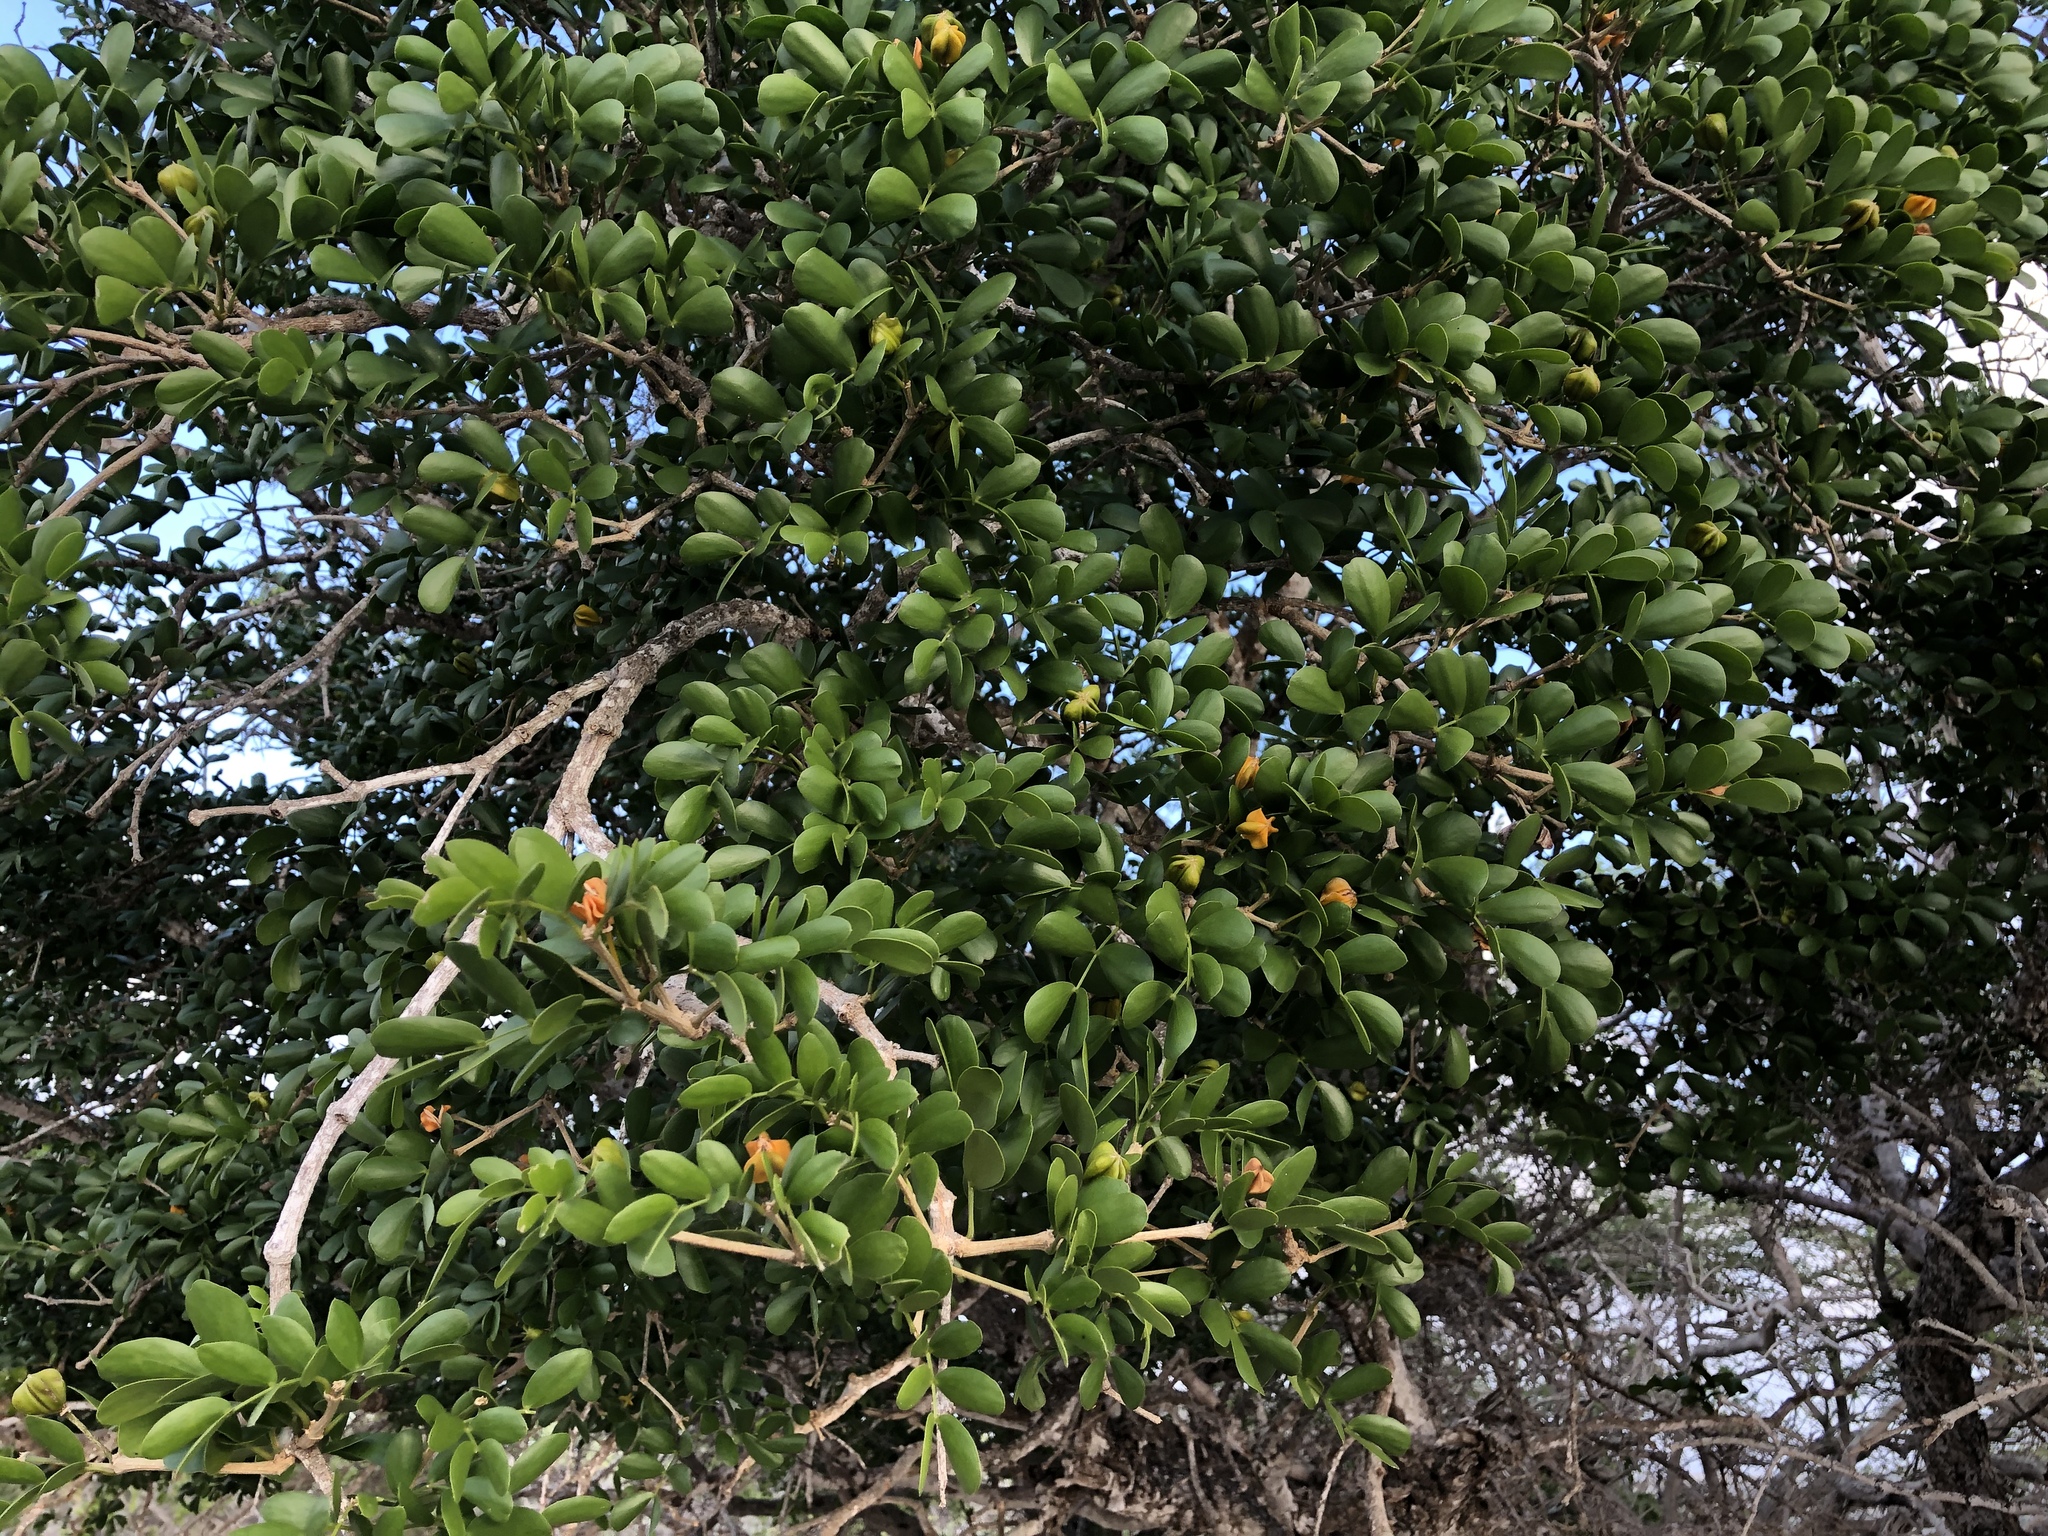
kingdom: Plantae
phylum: Tracheophyta
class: Magnoliopsida
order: Zygophyllales
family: Zygophyllaceae
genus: Guaiacum
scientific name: Guaiacum sanctum
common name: Holywood
